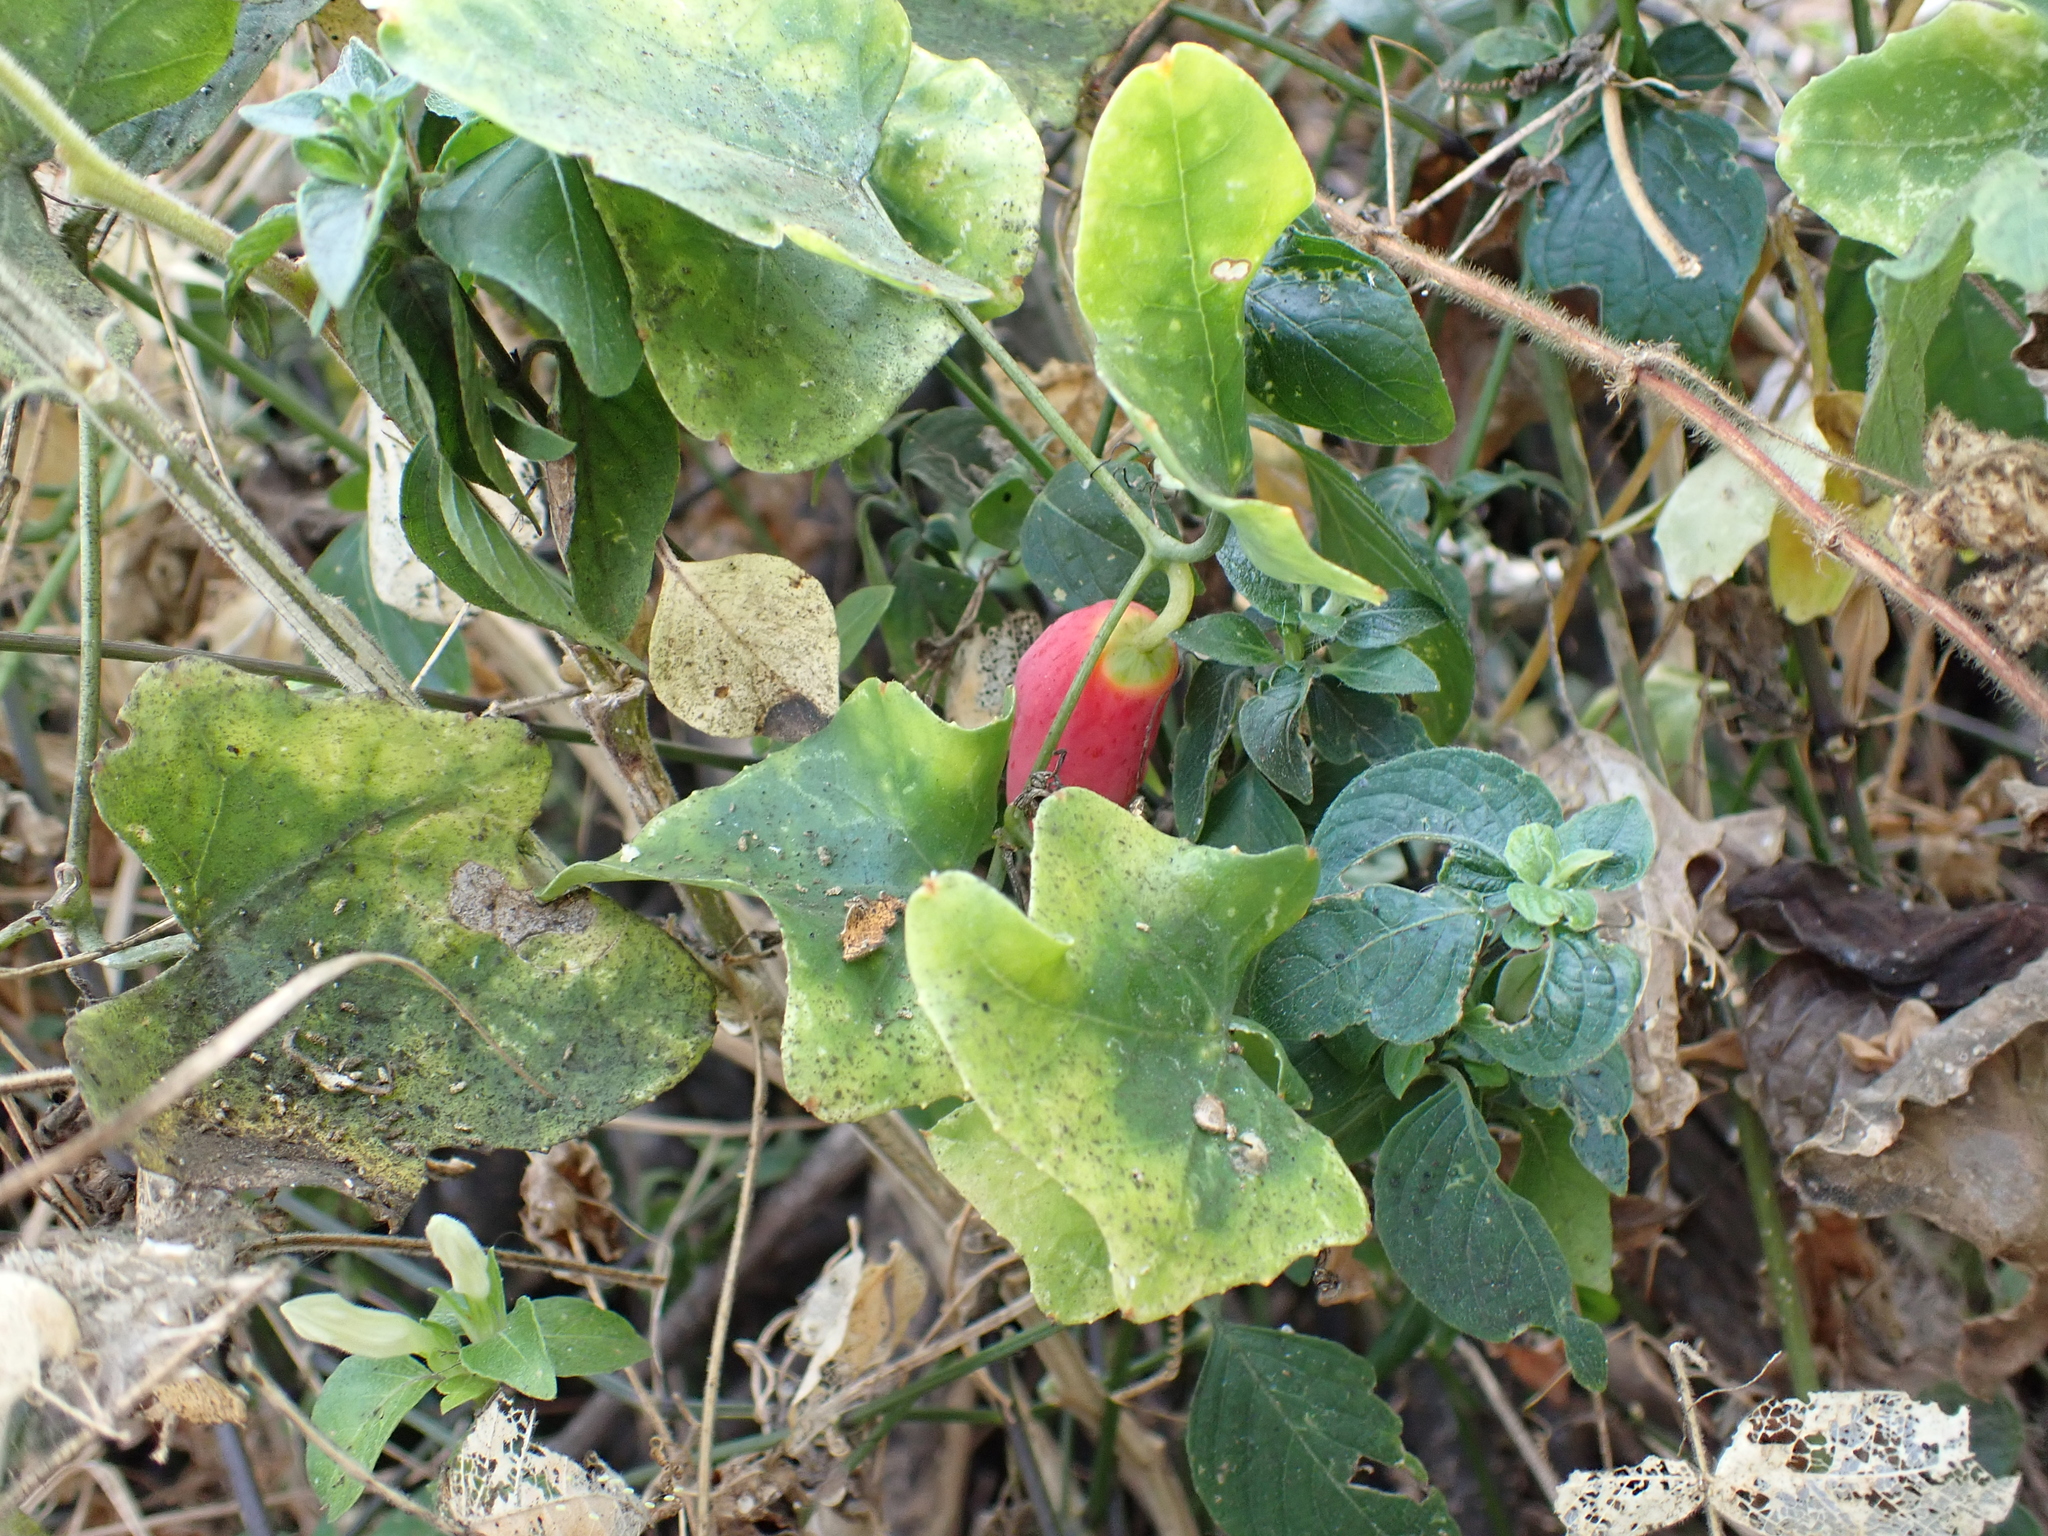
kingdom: Plantae
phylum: Tracheophyta
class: Magnoliopsida
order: Cucurbitales
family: Cucurbitaceae
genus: Coccinia
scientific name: Coccinia grandis
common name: Ivy gourd
